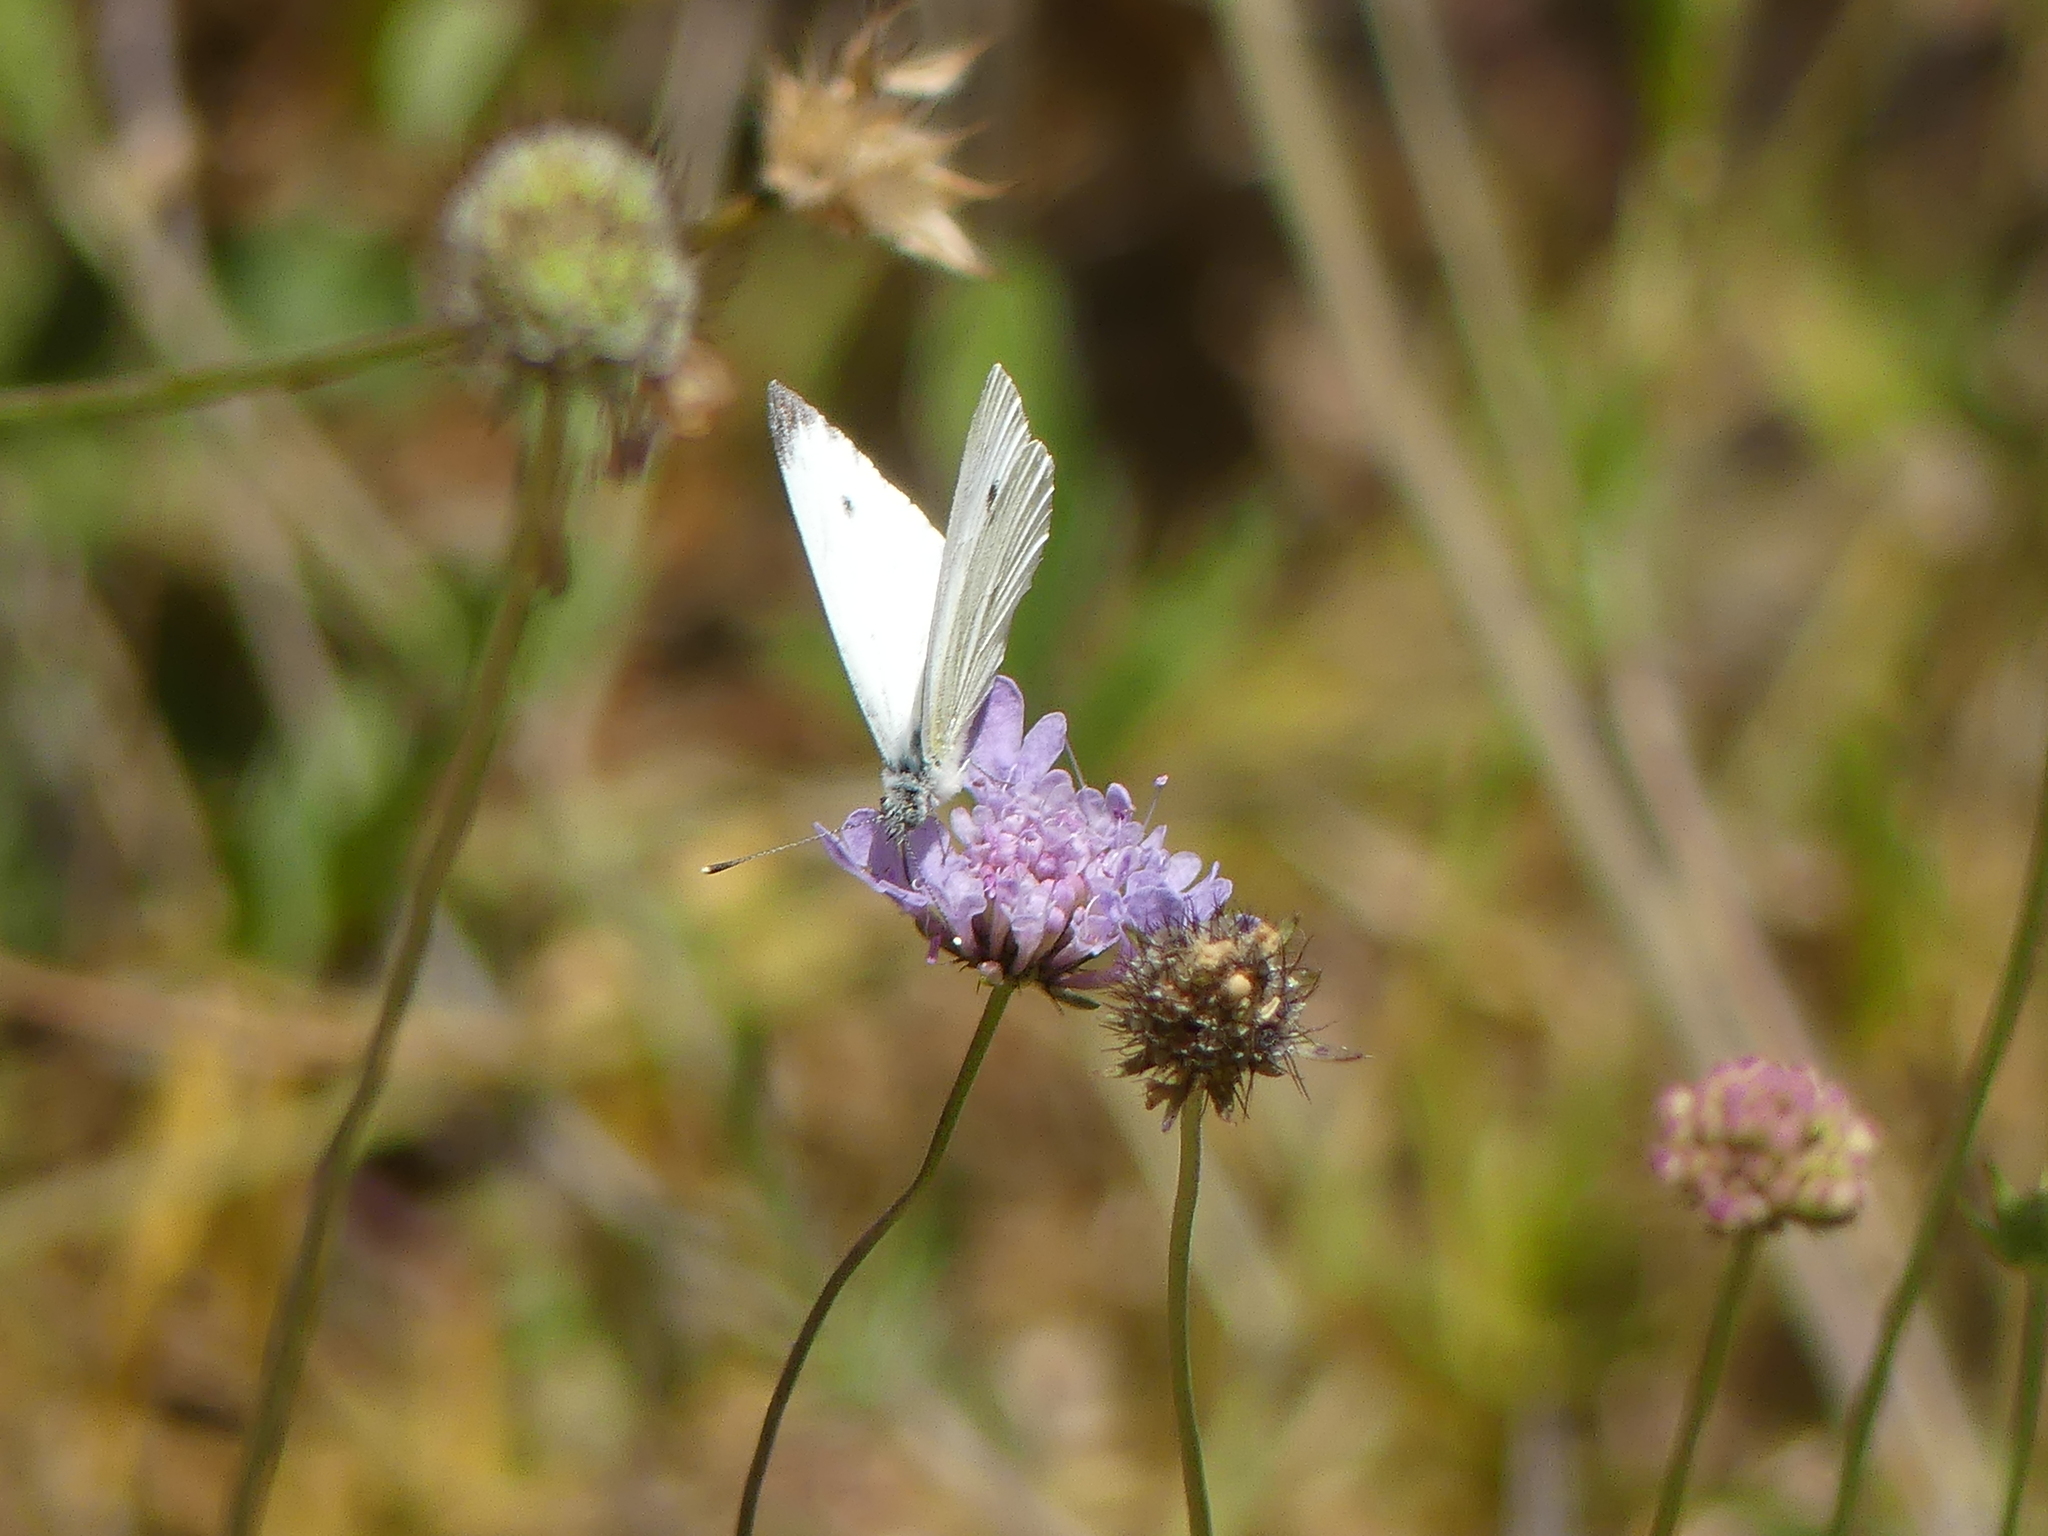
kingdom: Animalia
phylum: Arthropoda
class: Insecta
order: Lepidoptera
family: Pieridae
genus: Pieris
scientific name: Pieris rapae
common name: Small white
